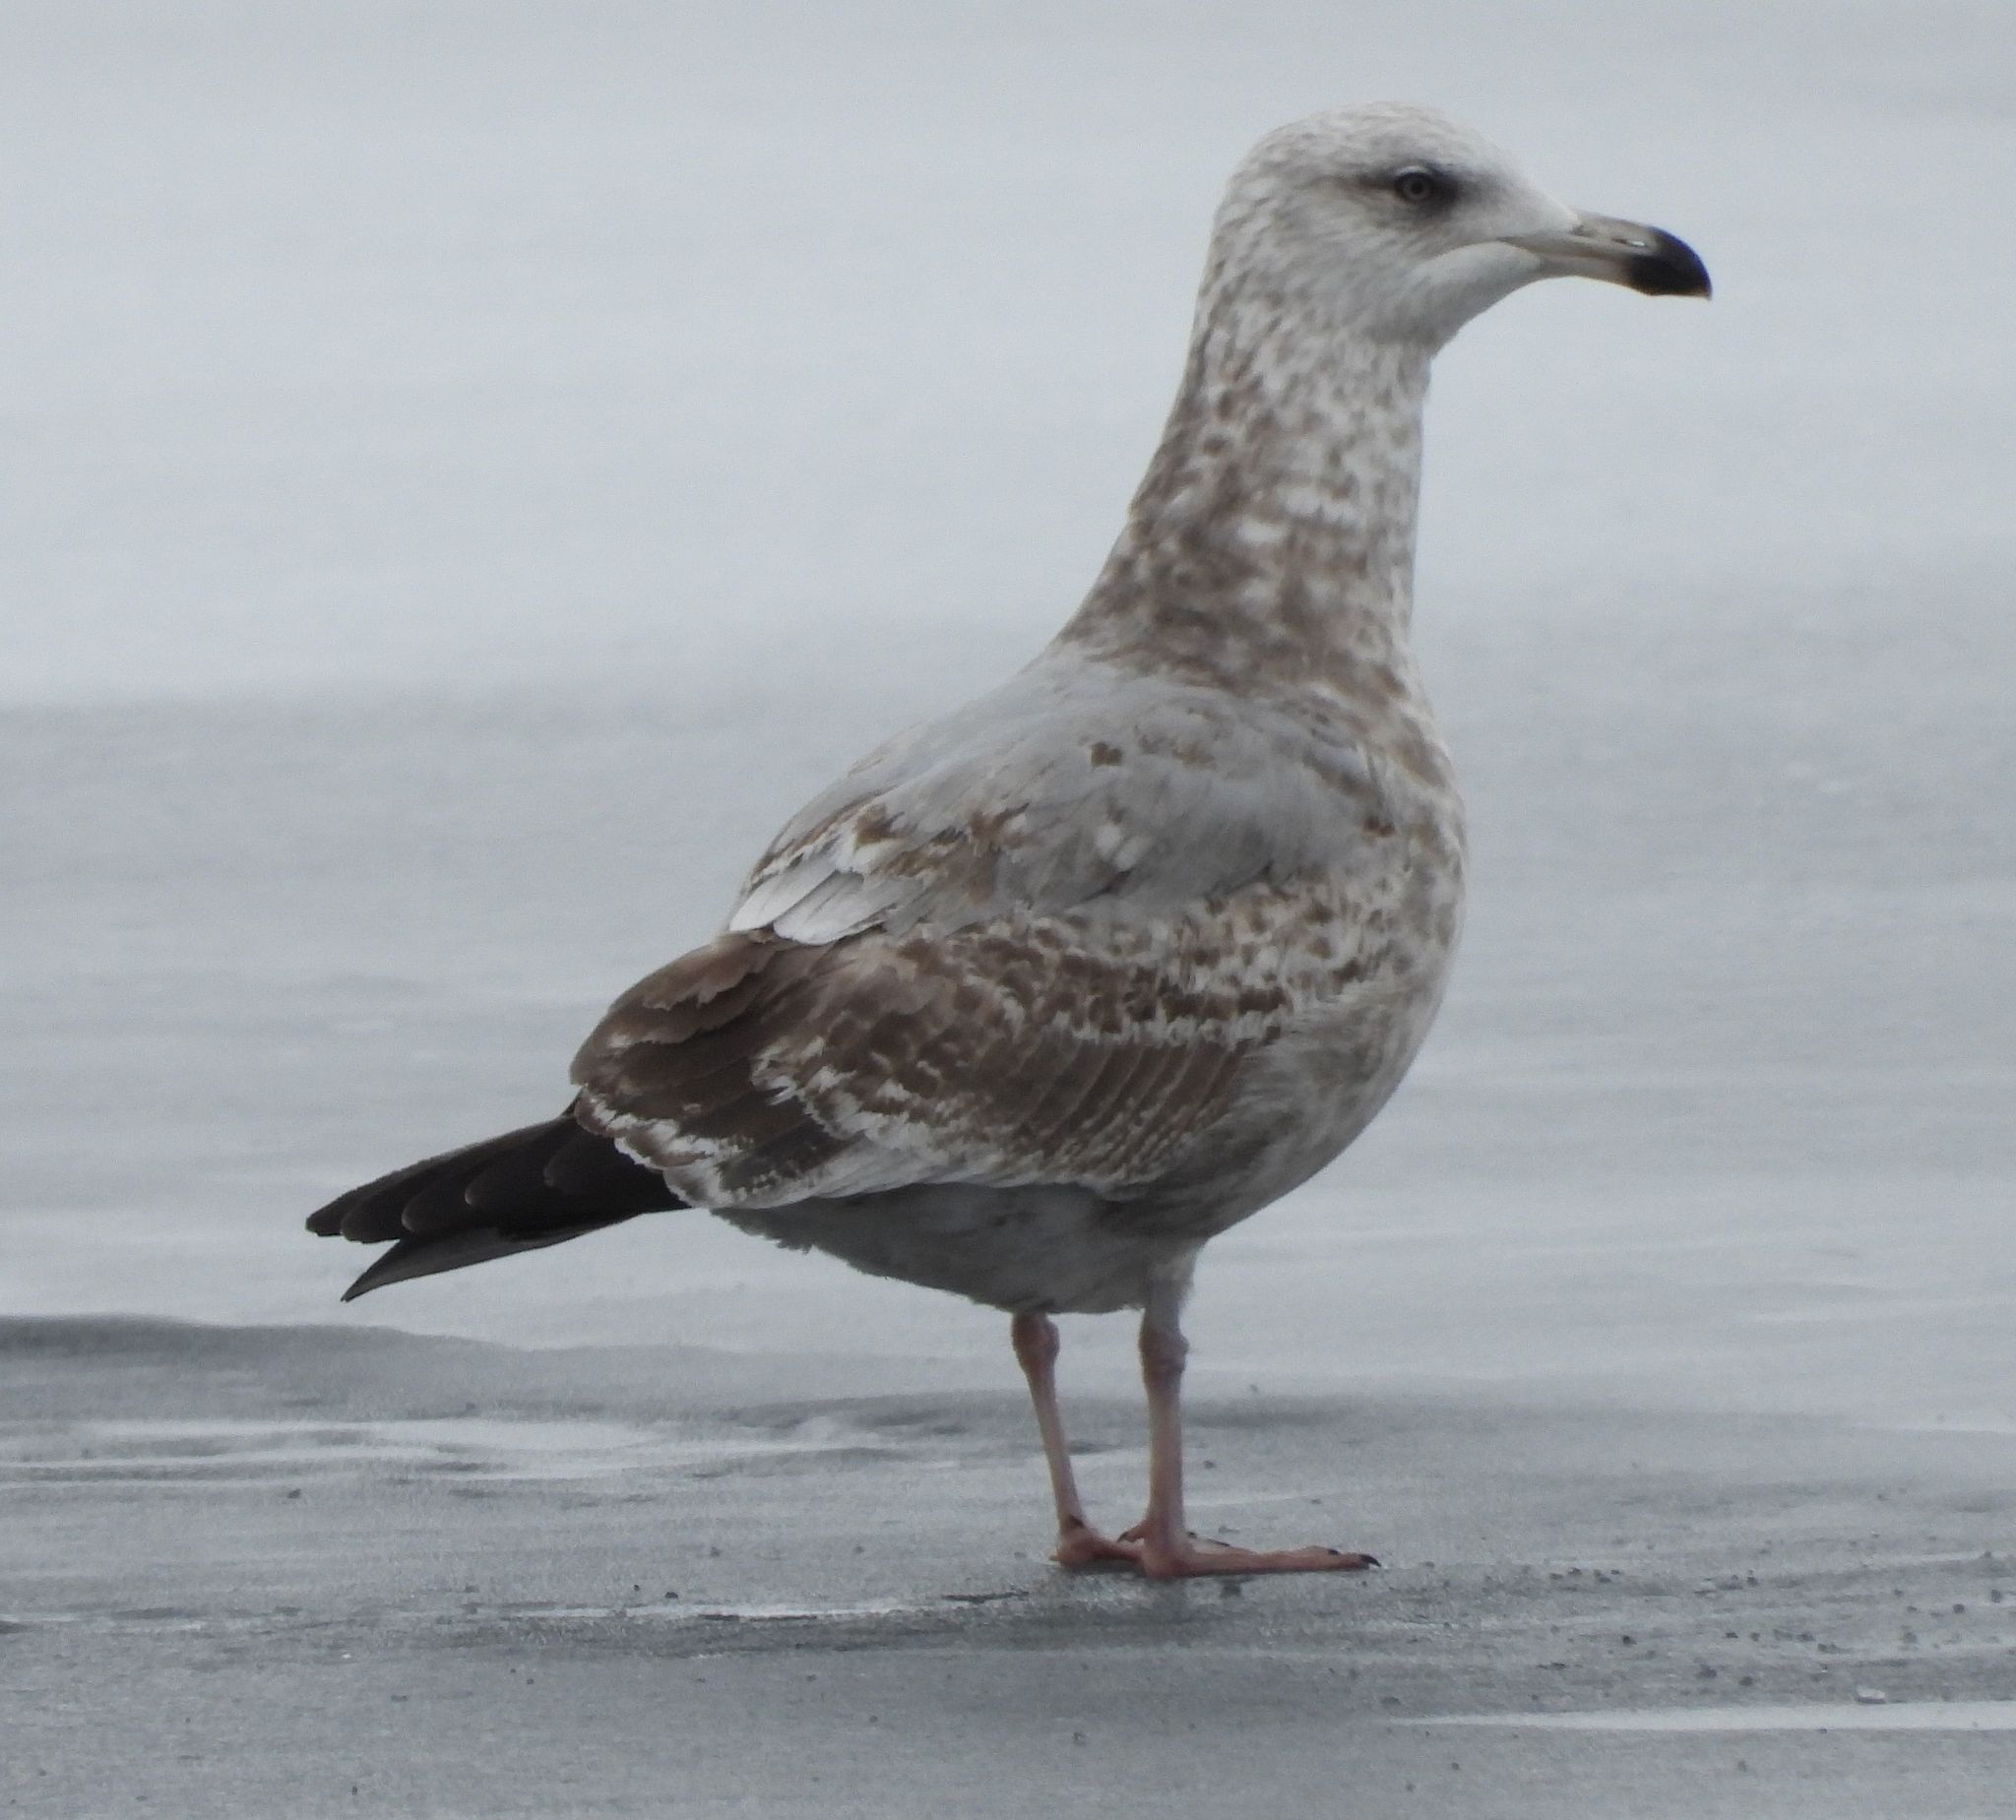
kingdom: Animalia
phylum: Chordata
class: Aves
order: Charadriiformes
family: Laridae
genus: Larus
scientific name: Larus argentatus
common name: Herring gull
